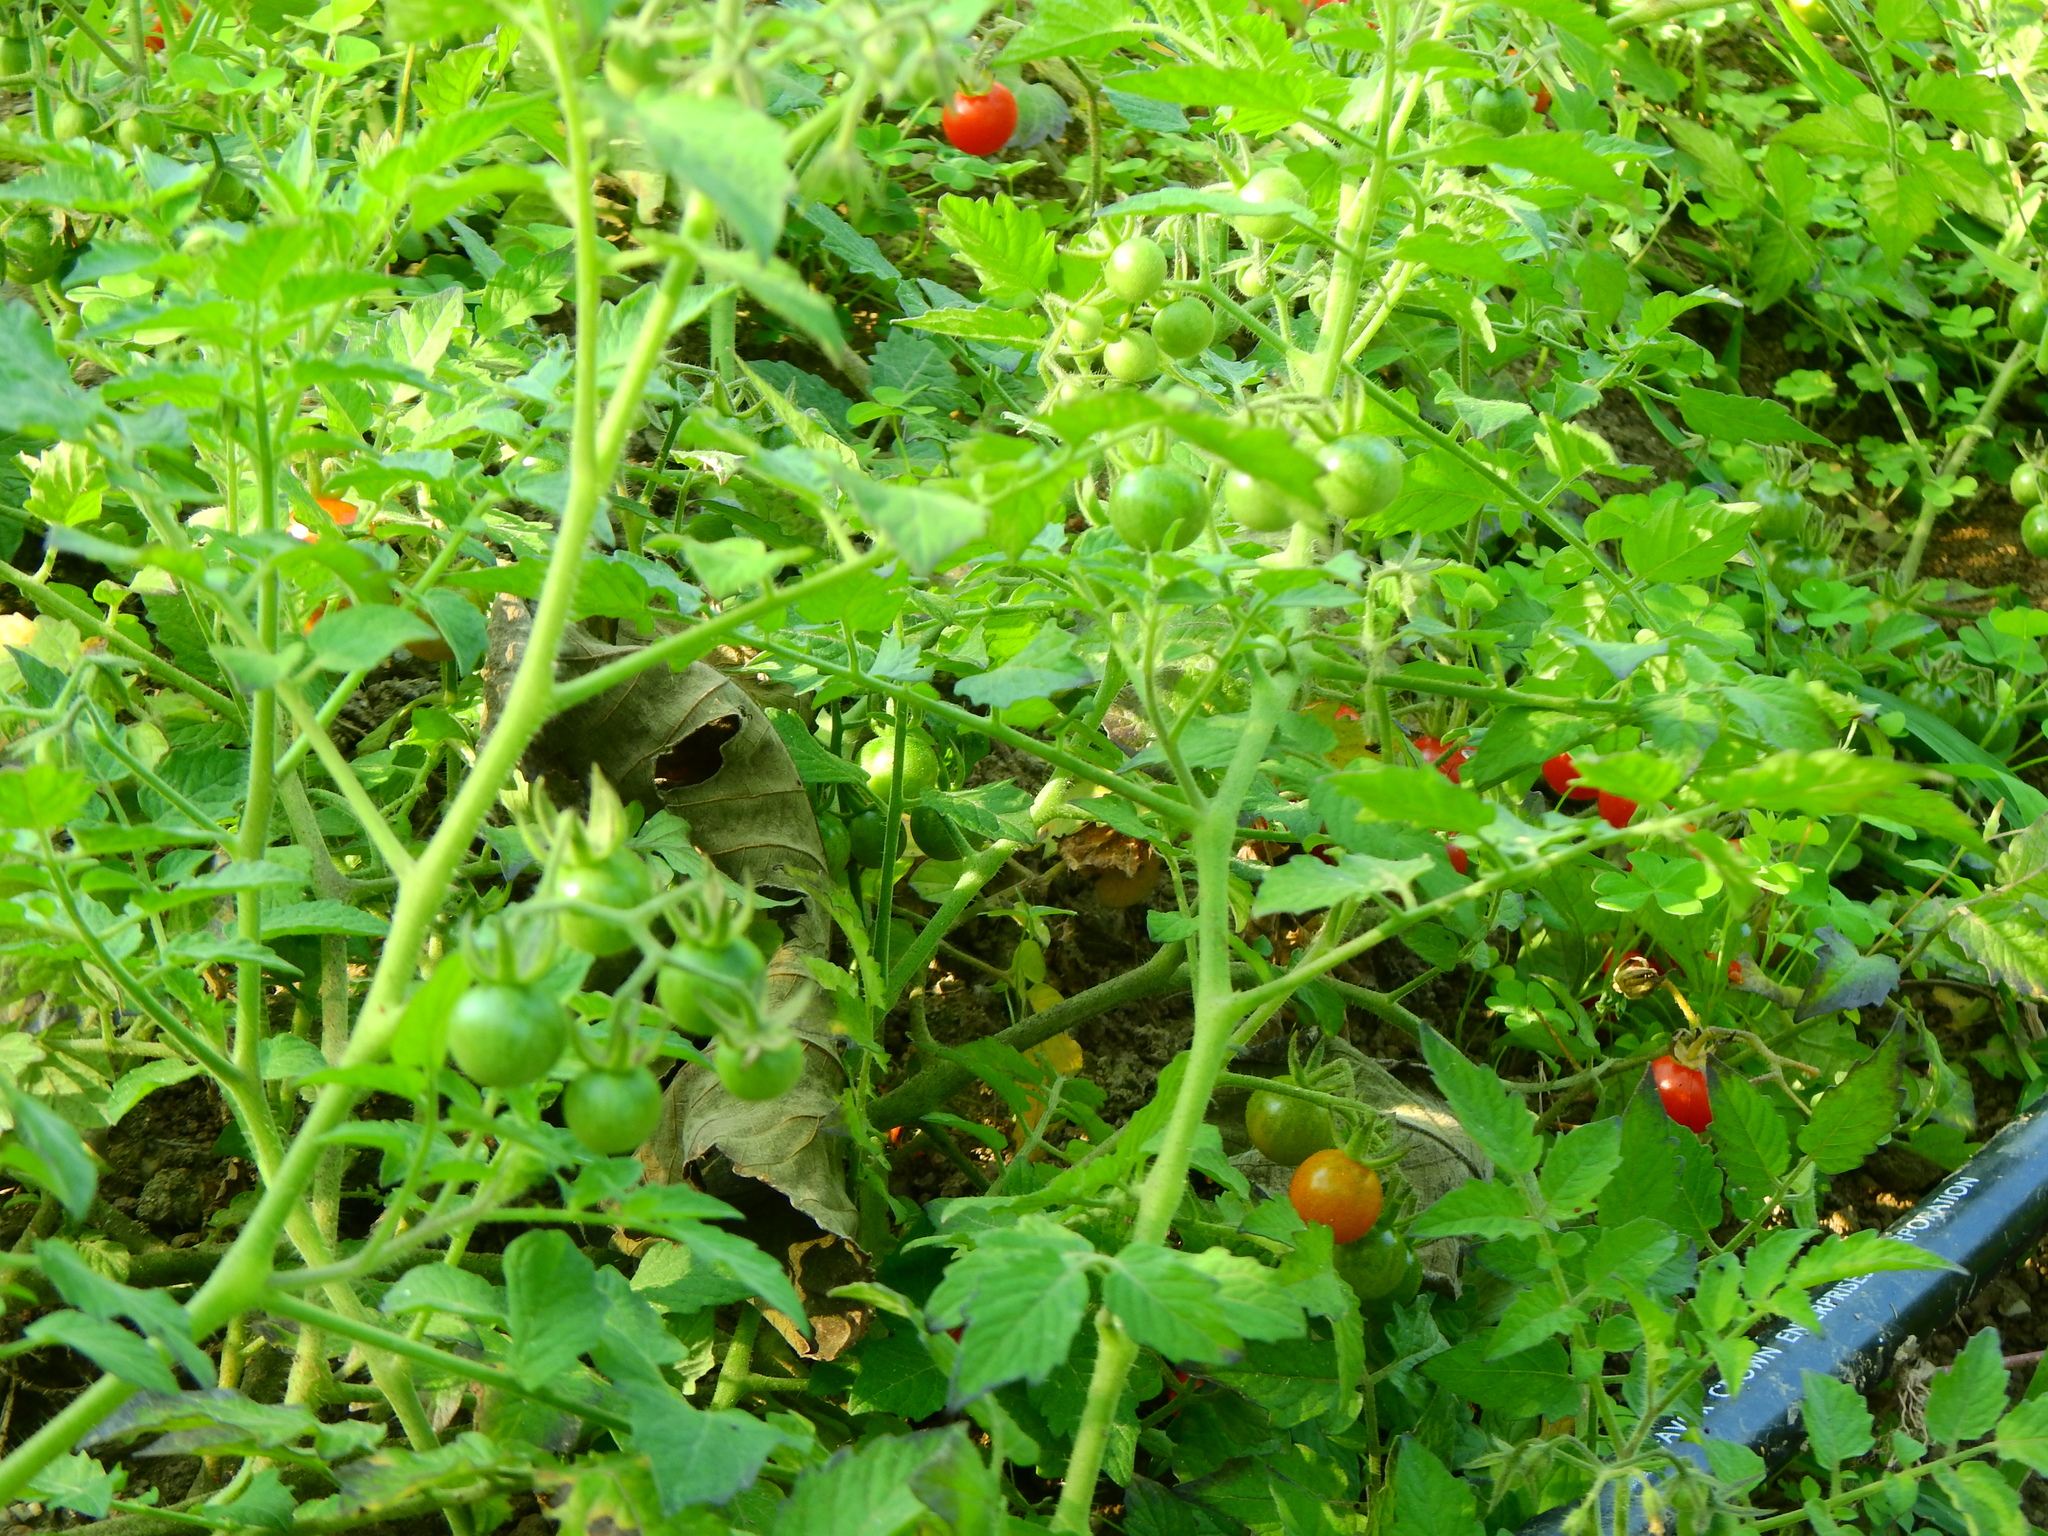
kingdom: Plantae
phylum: Tracheophyta
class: Magnoliopsida
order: Solanales
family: Solanaceae
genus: Solanum
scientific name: Solanum lycopersicum
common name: Garden tomato
